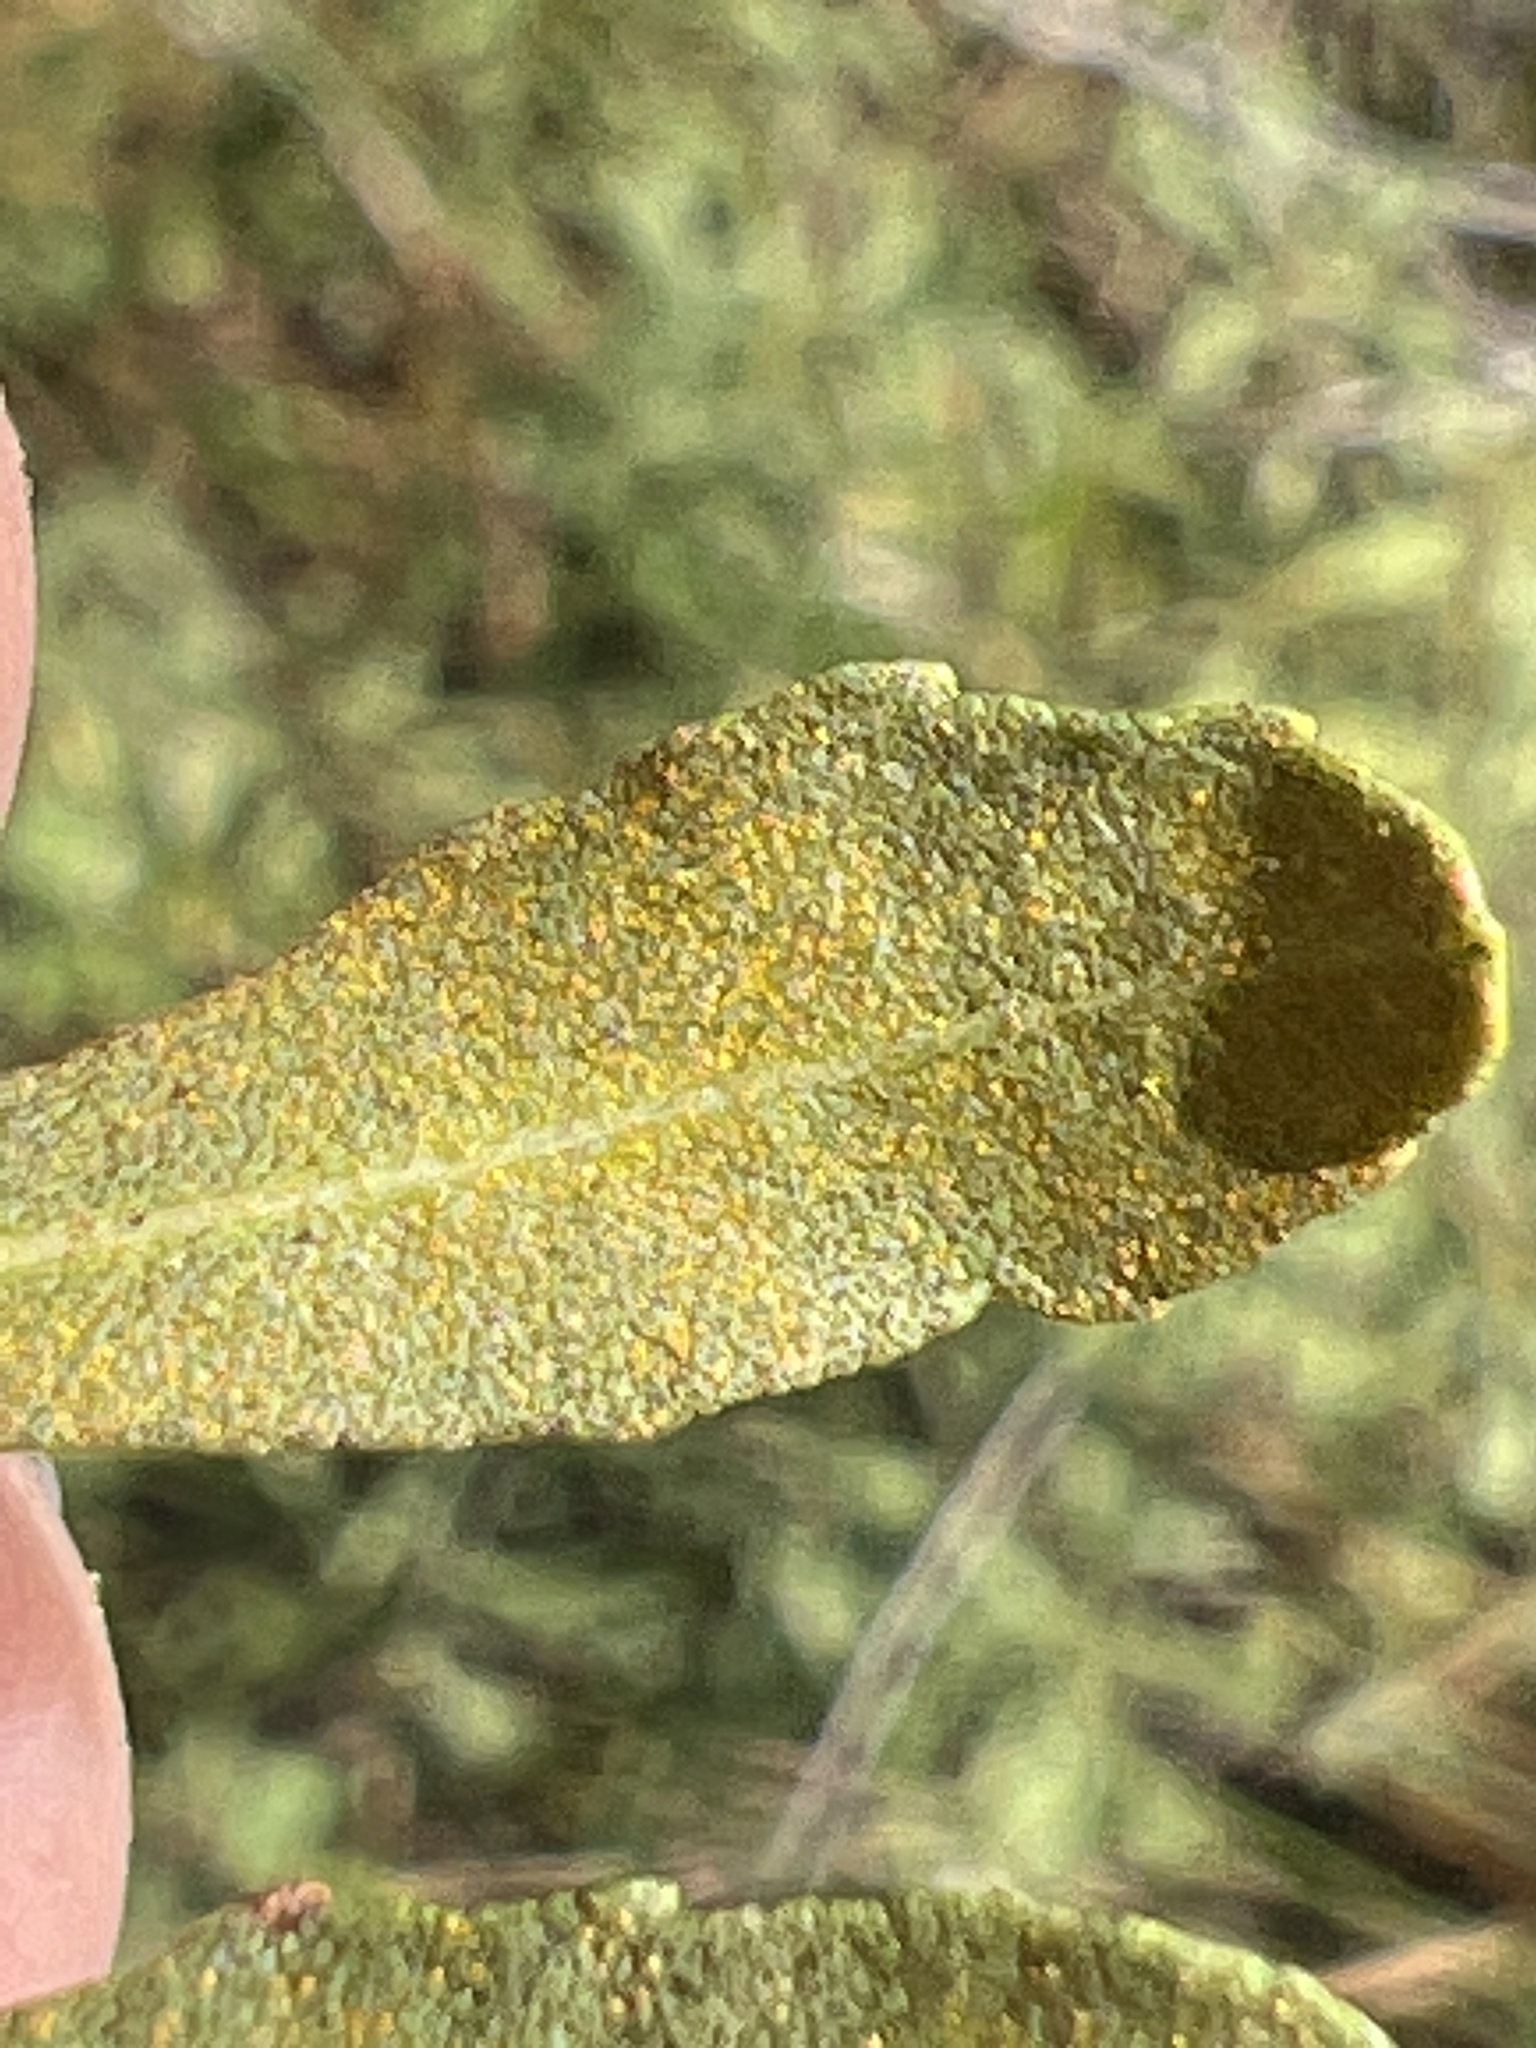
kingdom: Plantae
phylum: Tracheophyta
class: Magnoliopsida
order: Fagales
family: Myricaceae
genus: Morella
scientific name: Morella cerifera
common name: Wax myrtle
